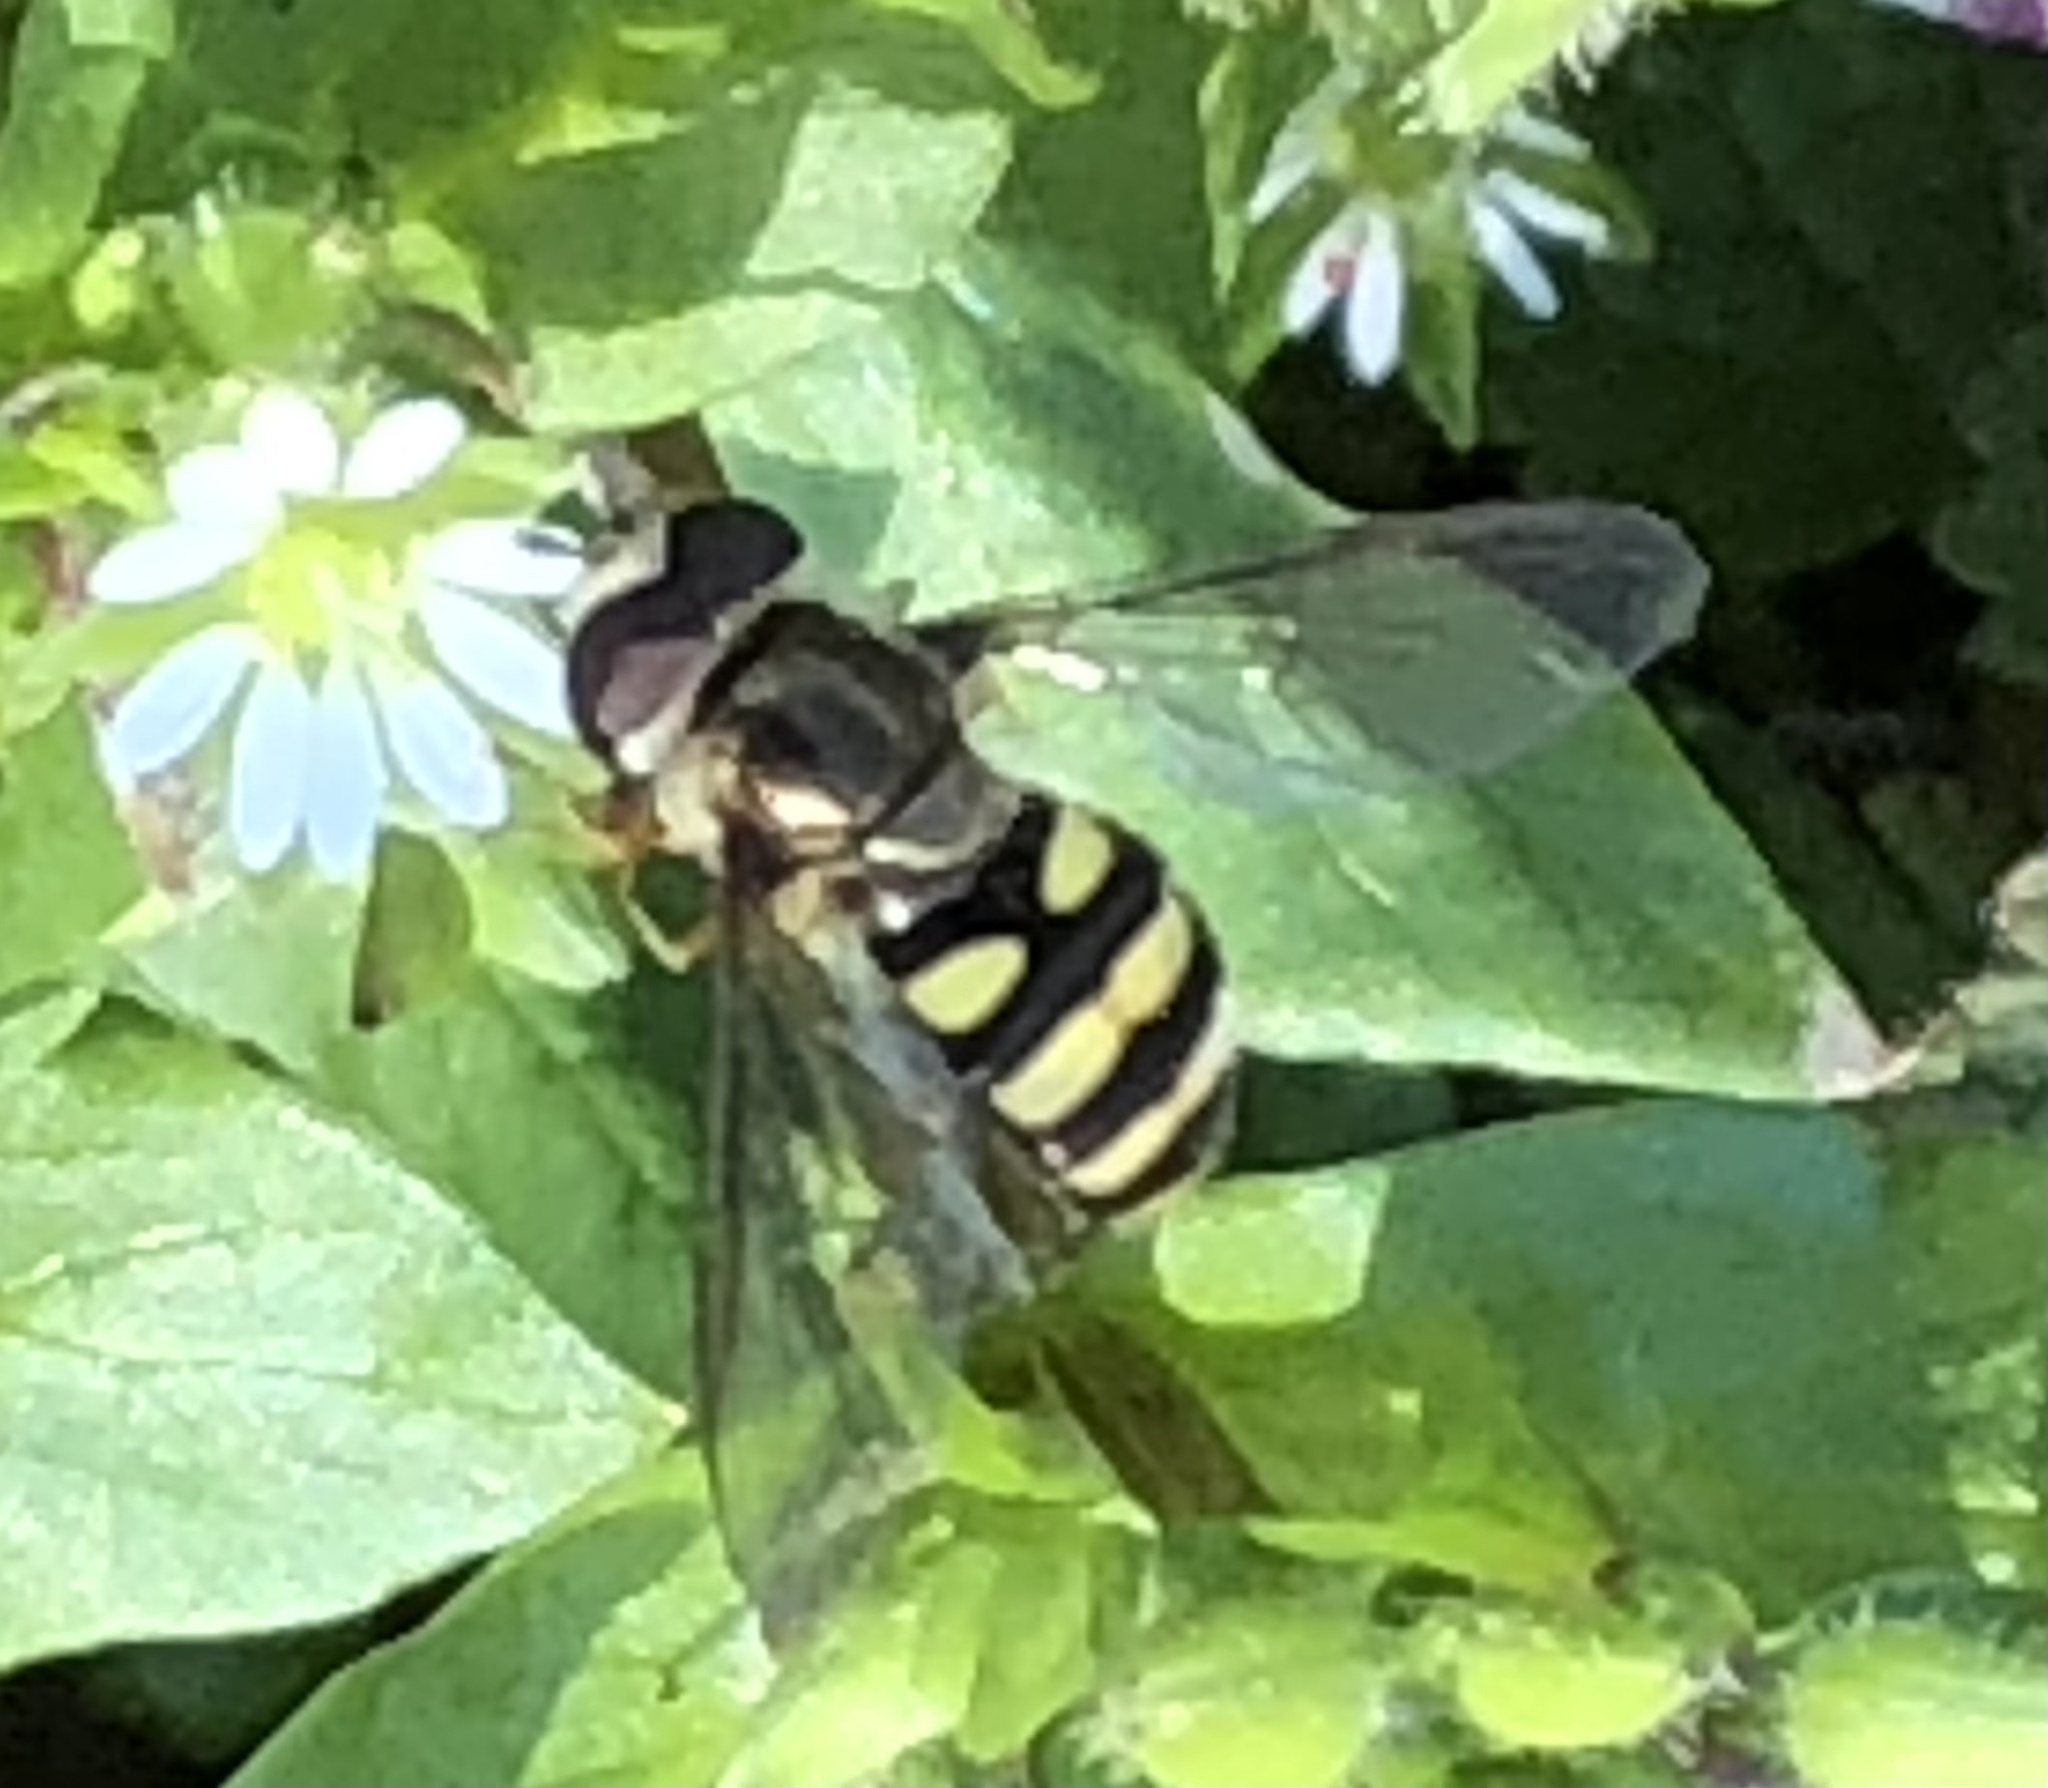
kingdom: Animalia
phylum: Arthropoda
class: Insecta
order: Diptera
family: Syrphidae
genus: Eupeodes
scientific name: Eupeodes
